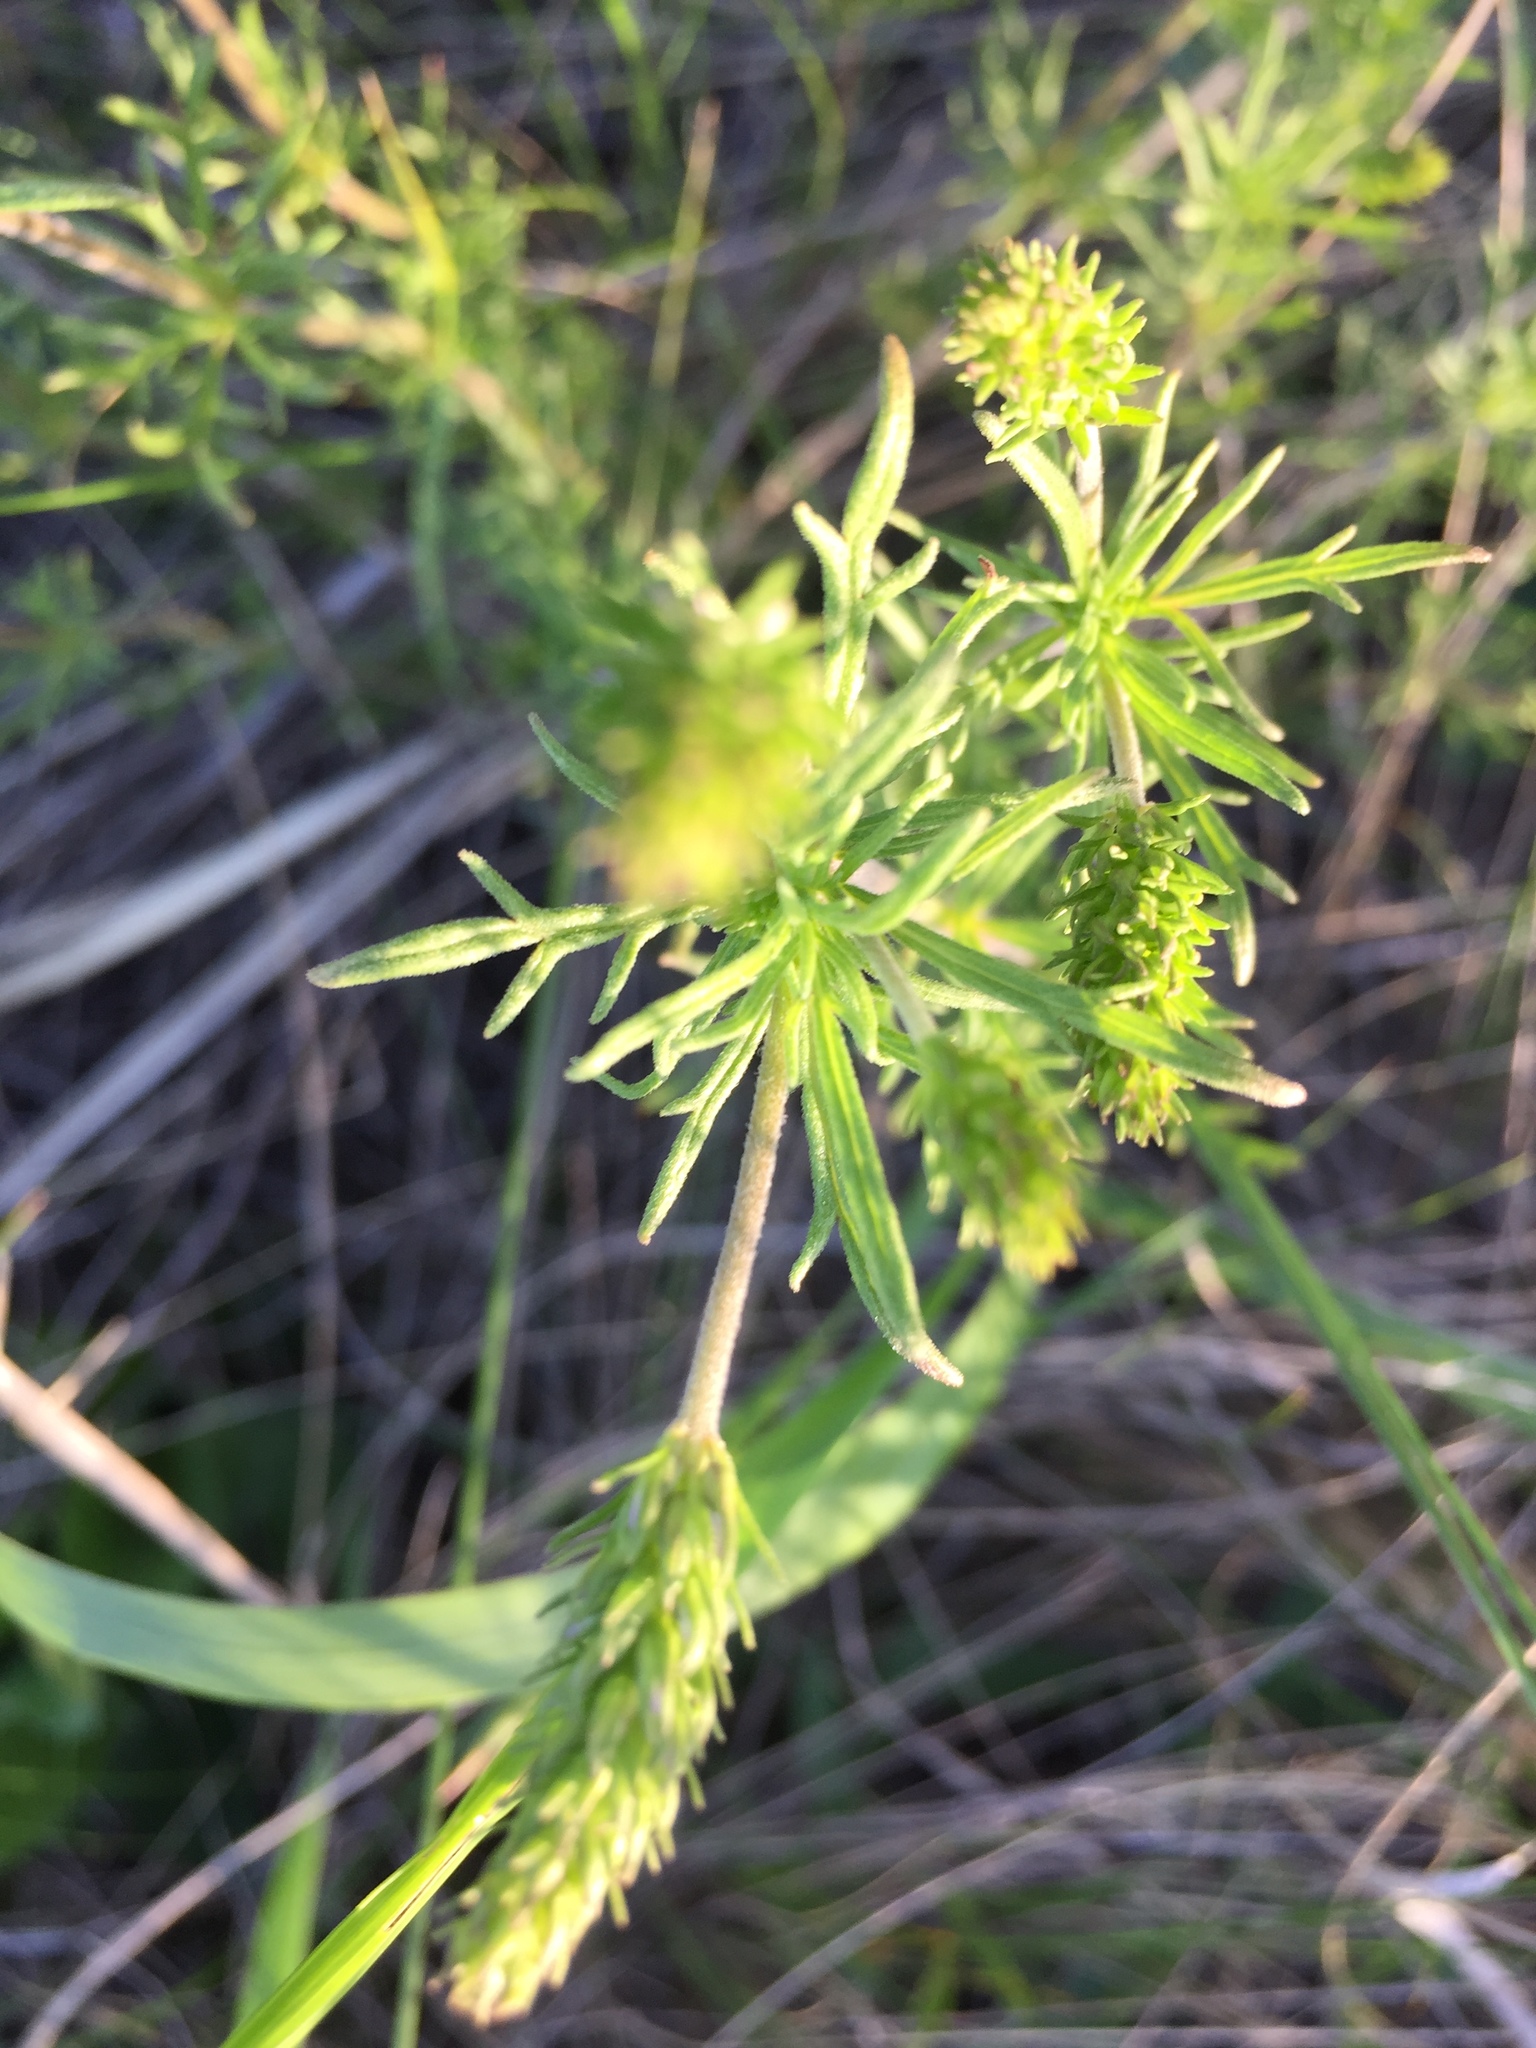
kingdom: Plantae
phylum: Tracheophyta
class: Magnoliopsida
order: Lamiales
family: Plantaginaceae
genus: Veronica
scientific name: Veronica austriaca
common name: Large speedwell
